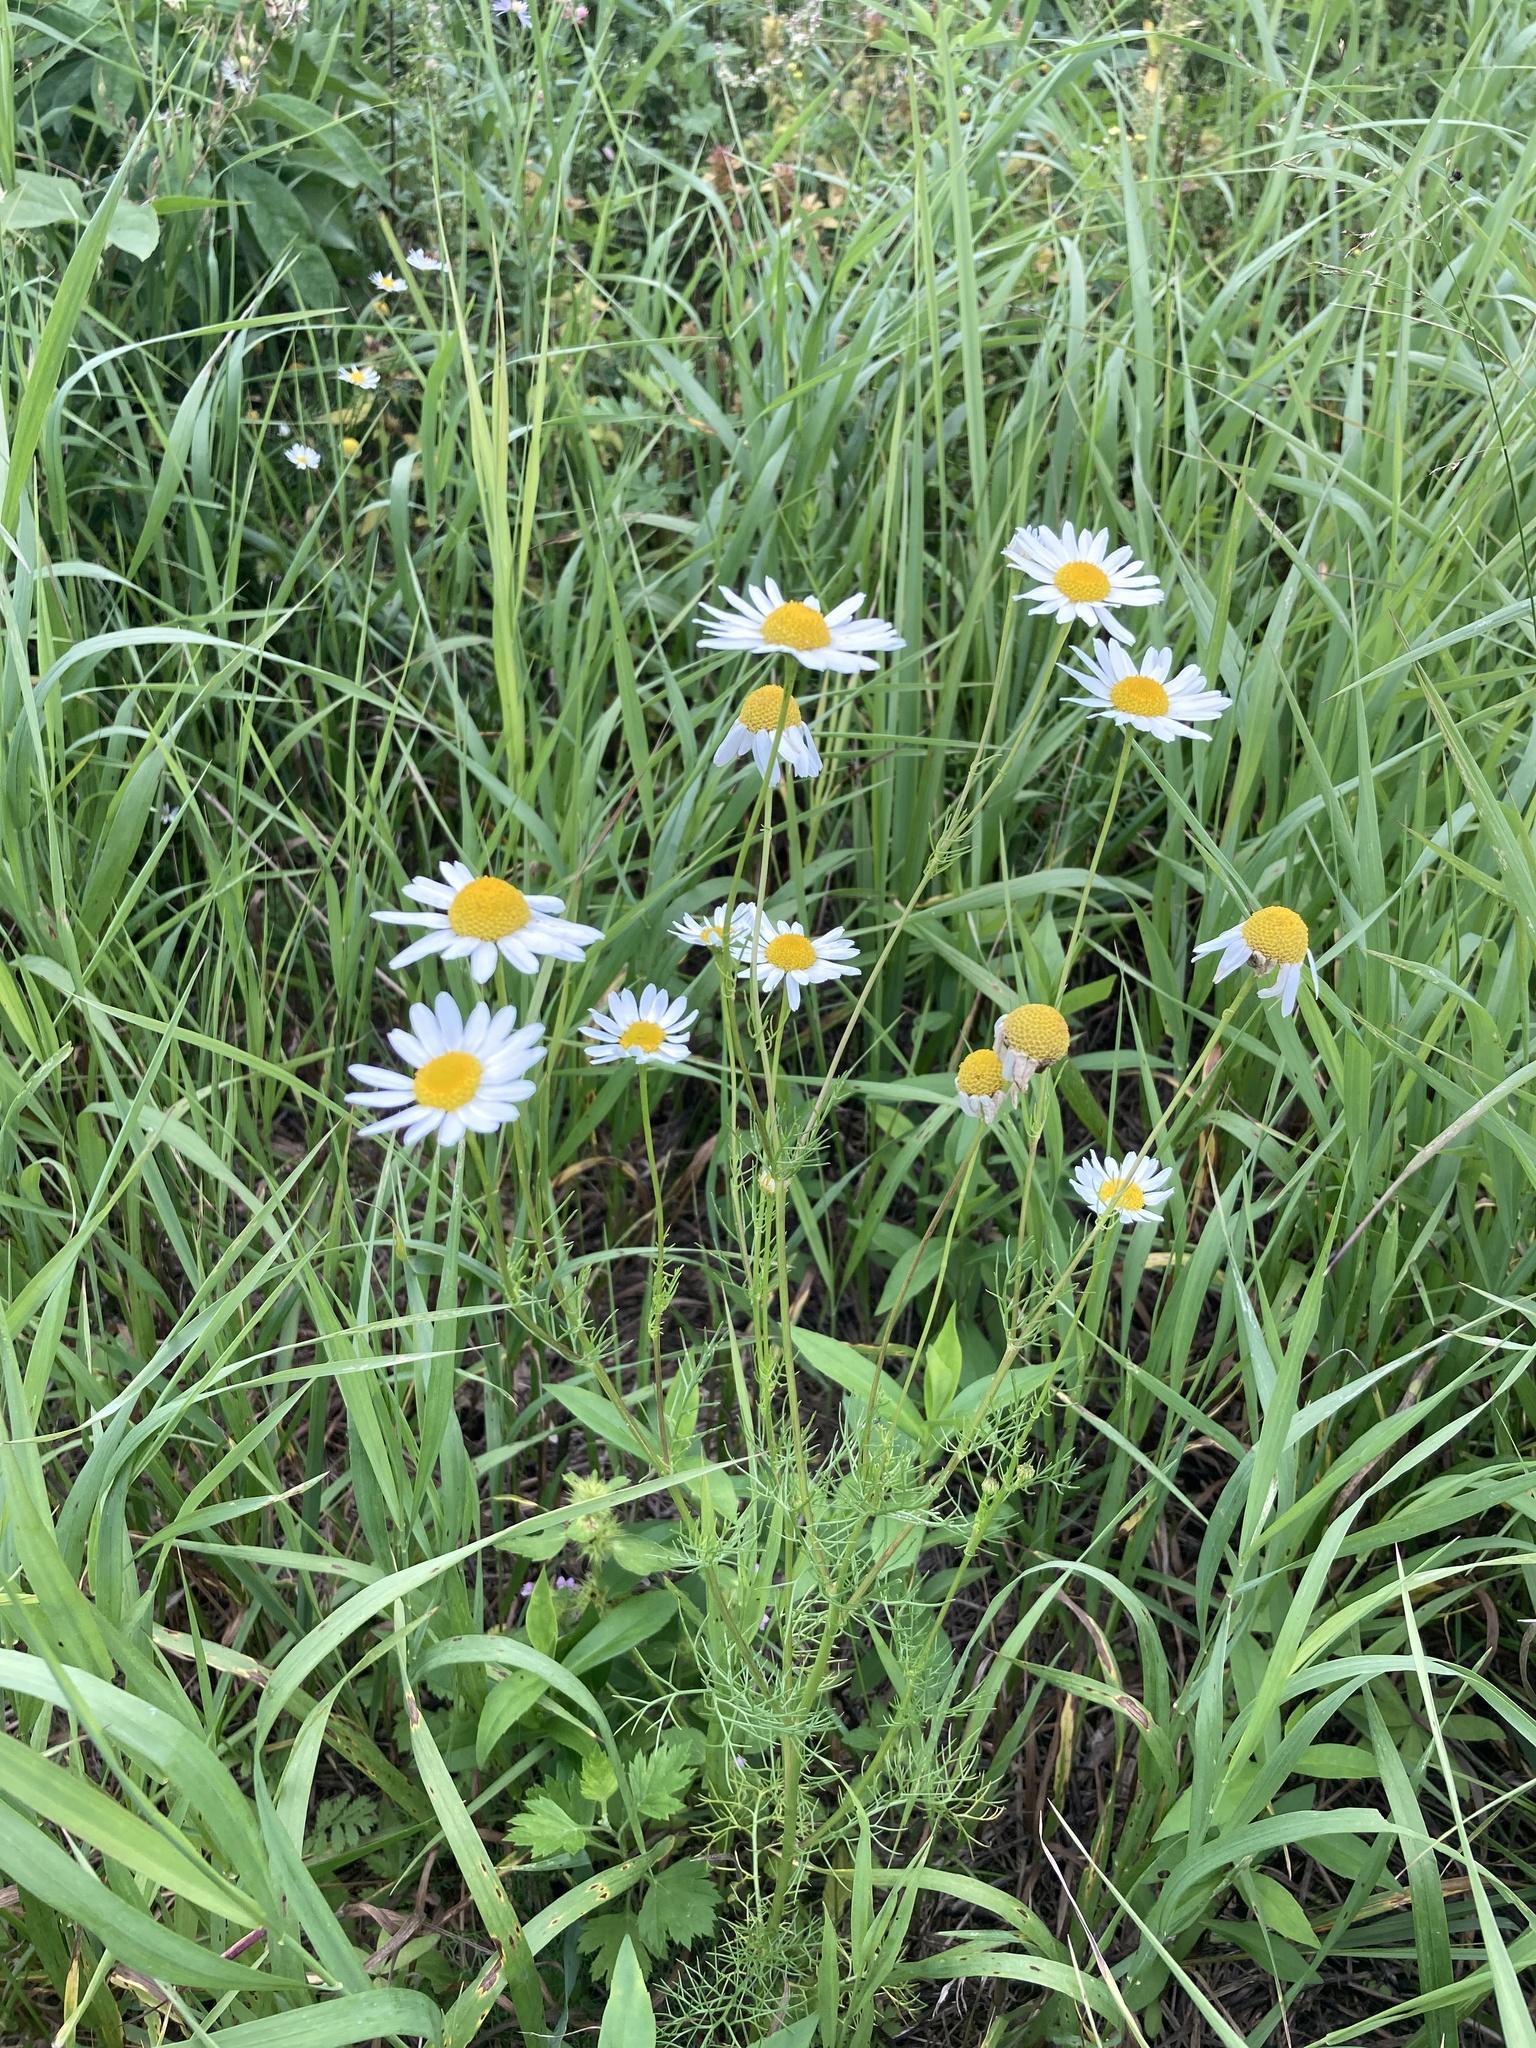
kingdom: Plantae
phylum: Tracheophyta
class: Magnoliopsida
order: Asterales
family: Asteraceae
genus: Tripleurospermum
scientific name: Tripleurospermum inodorum
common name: Scentless mayweed
